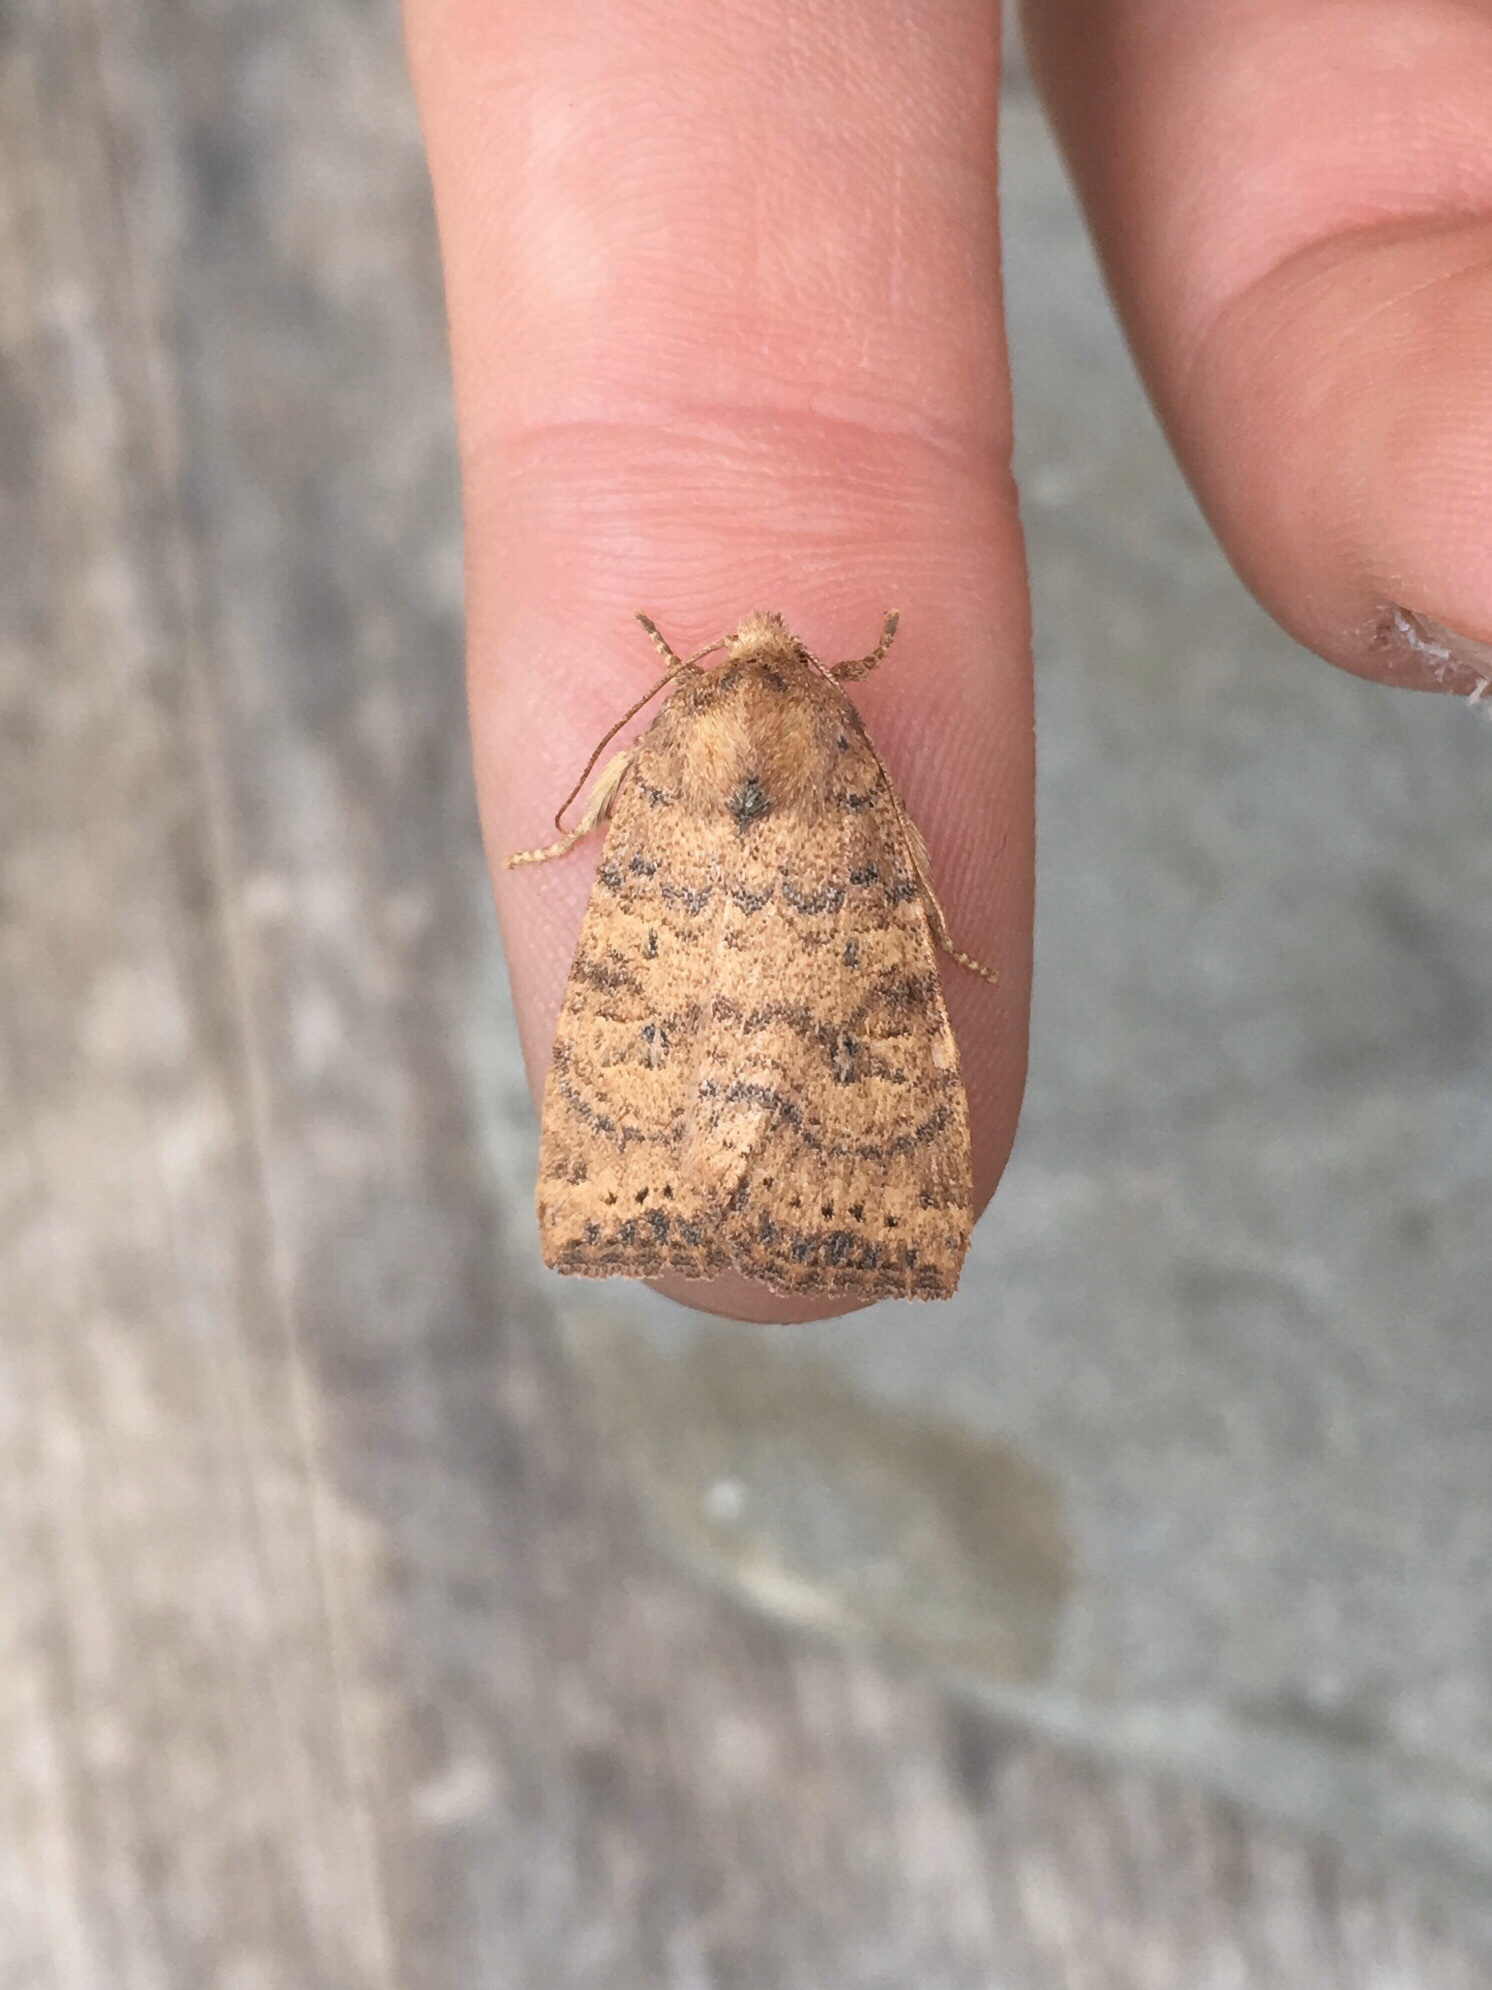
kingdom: Animalia
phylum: Arthropoda
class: Insecta
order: Lepidoptera
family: Noctuidae
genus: Anathix
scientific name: Anathix ralla
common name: Dotted sallow
